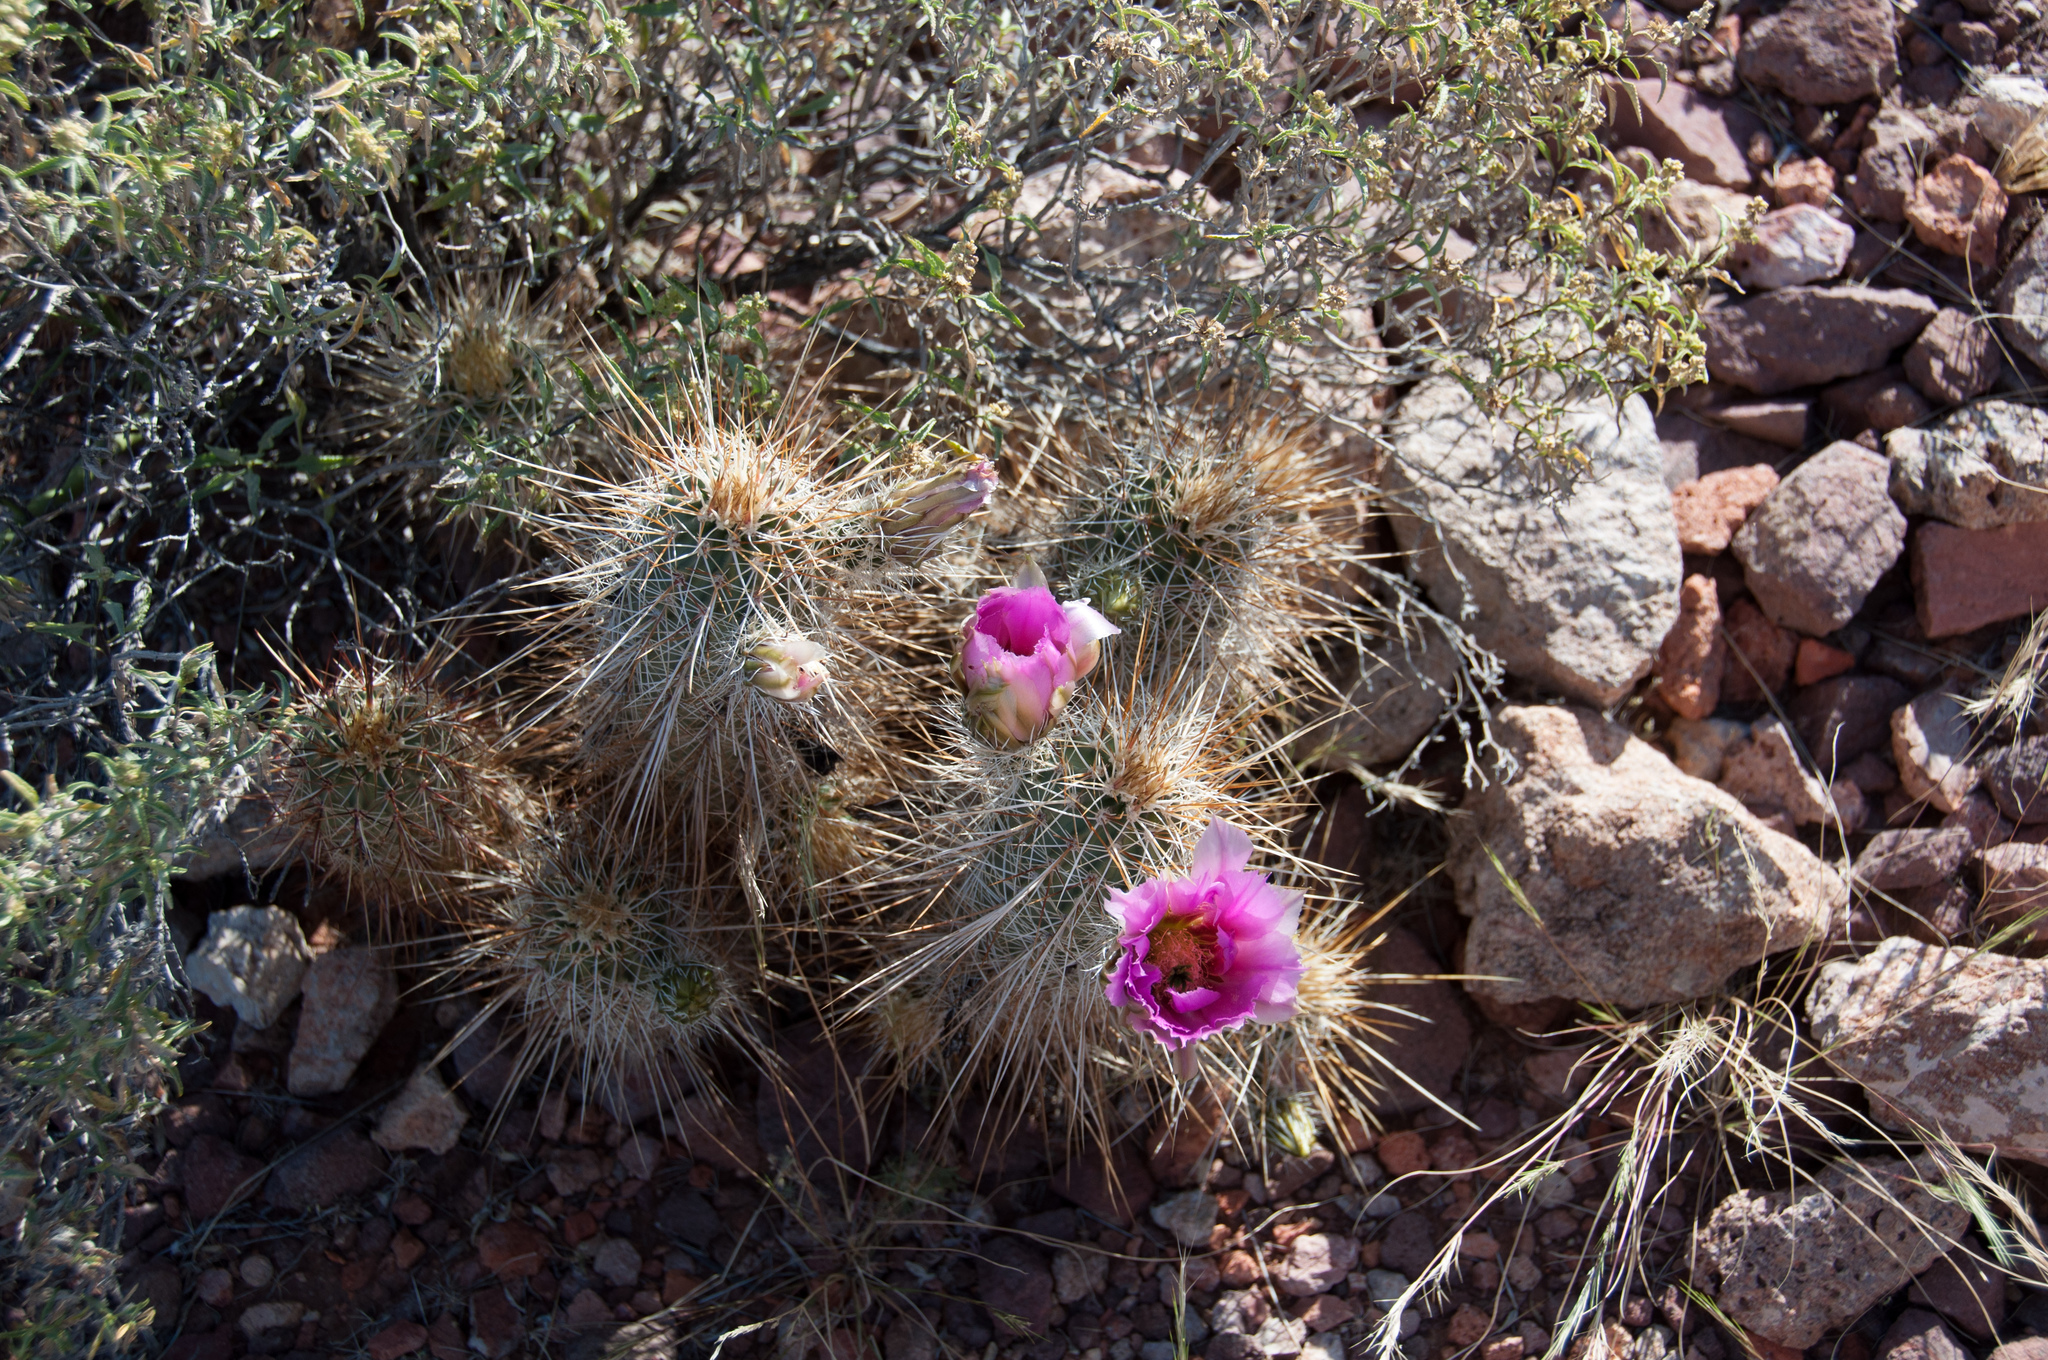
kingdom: Plantae
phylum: Tracheophyta
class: Magnoliopsida
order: Caryophyllales
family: Cactaceae
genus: Echinocereus
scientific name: Echinocereus engelmannii
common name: Engelmann's hedgehog cactus
